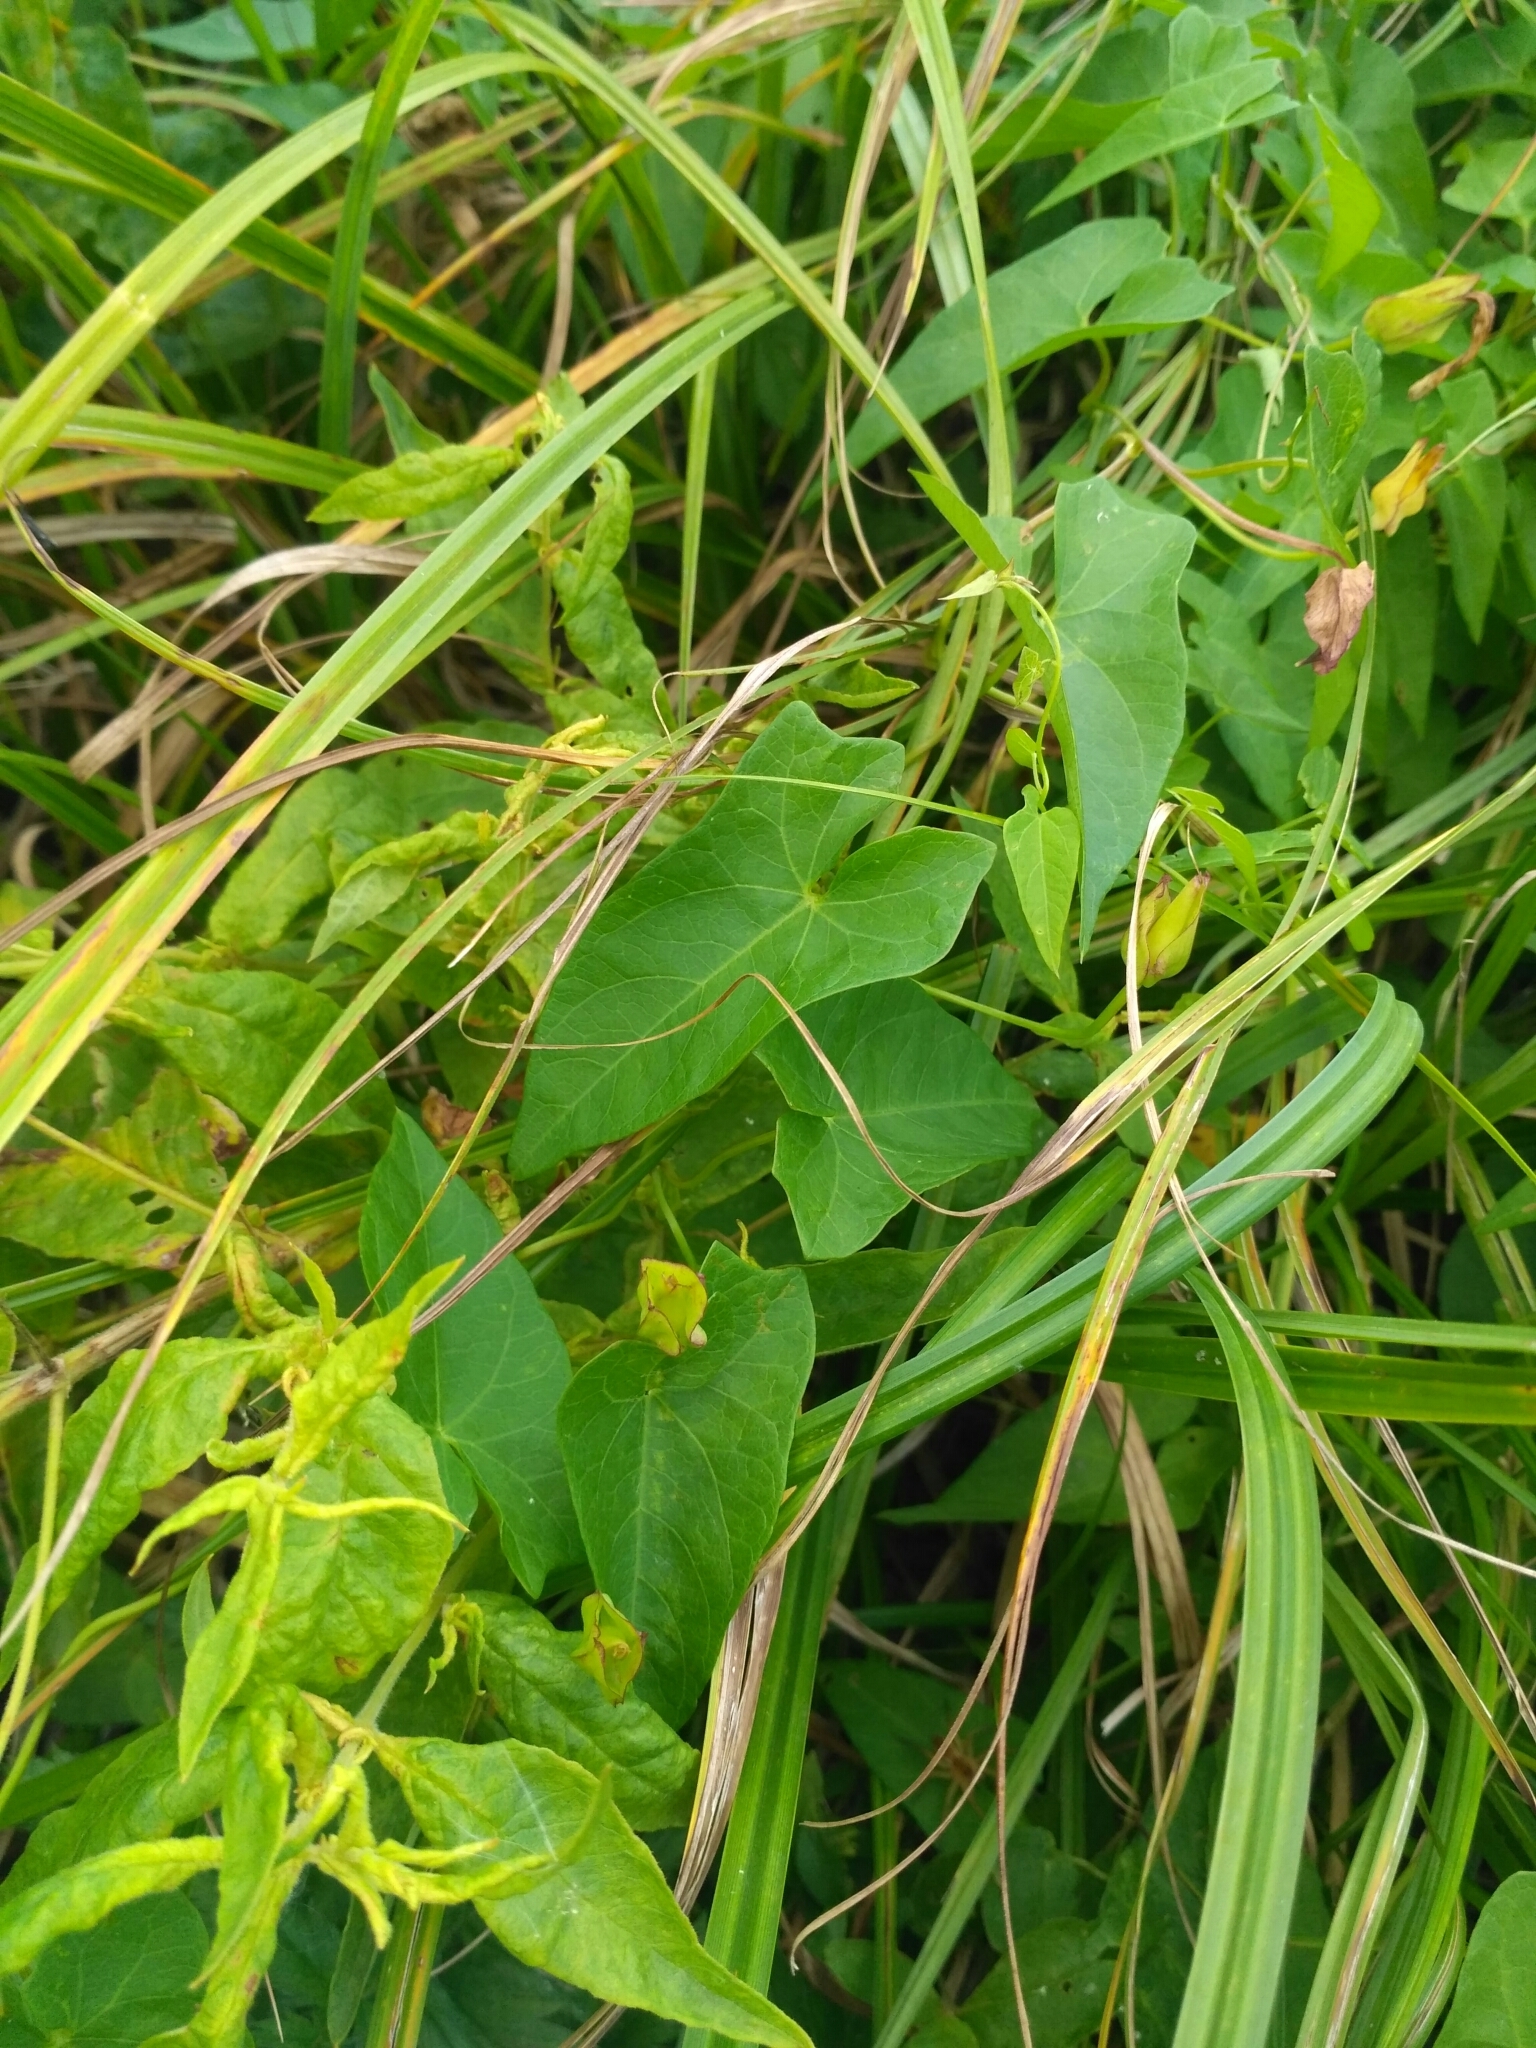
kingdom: Plantae
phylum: Tracheophyta
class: Magnoliopsida
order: Solanales
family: Convolvulaceae
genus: Calystegia
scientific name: Calystegia sepium
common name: Hedge bindweed
